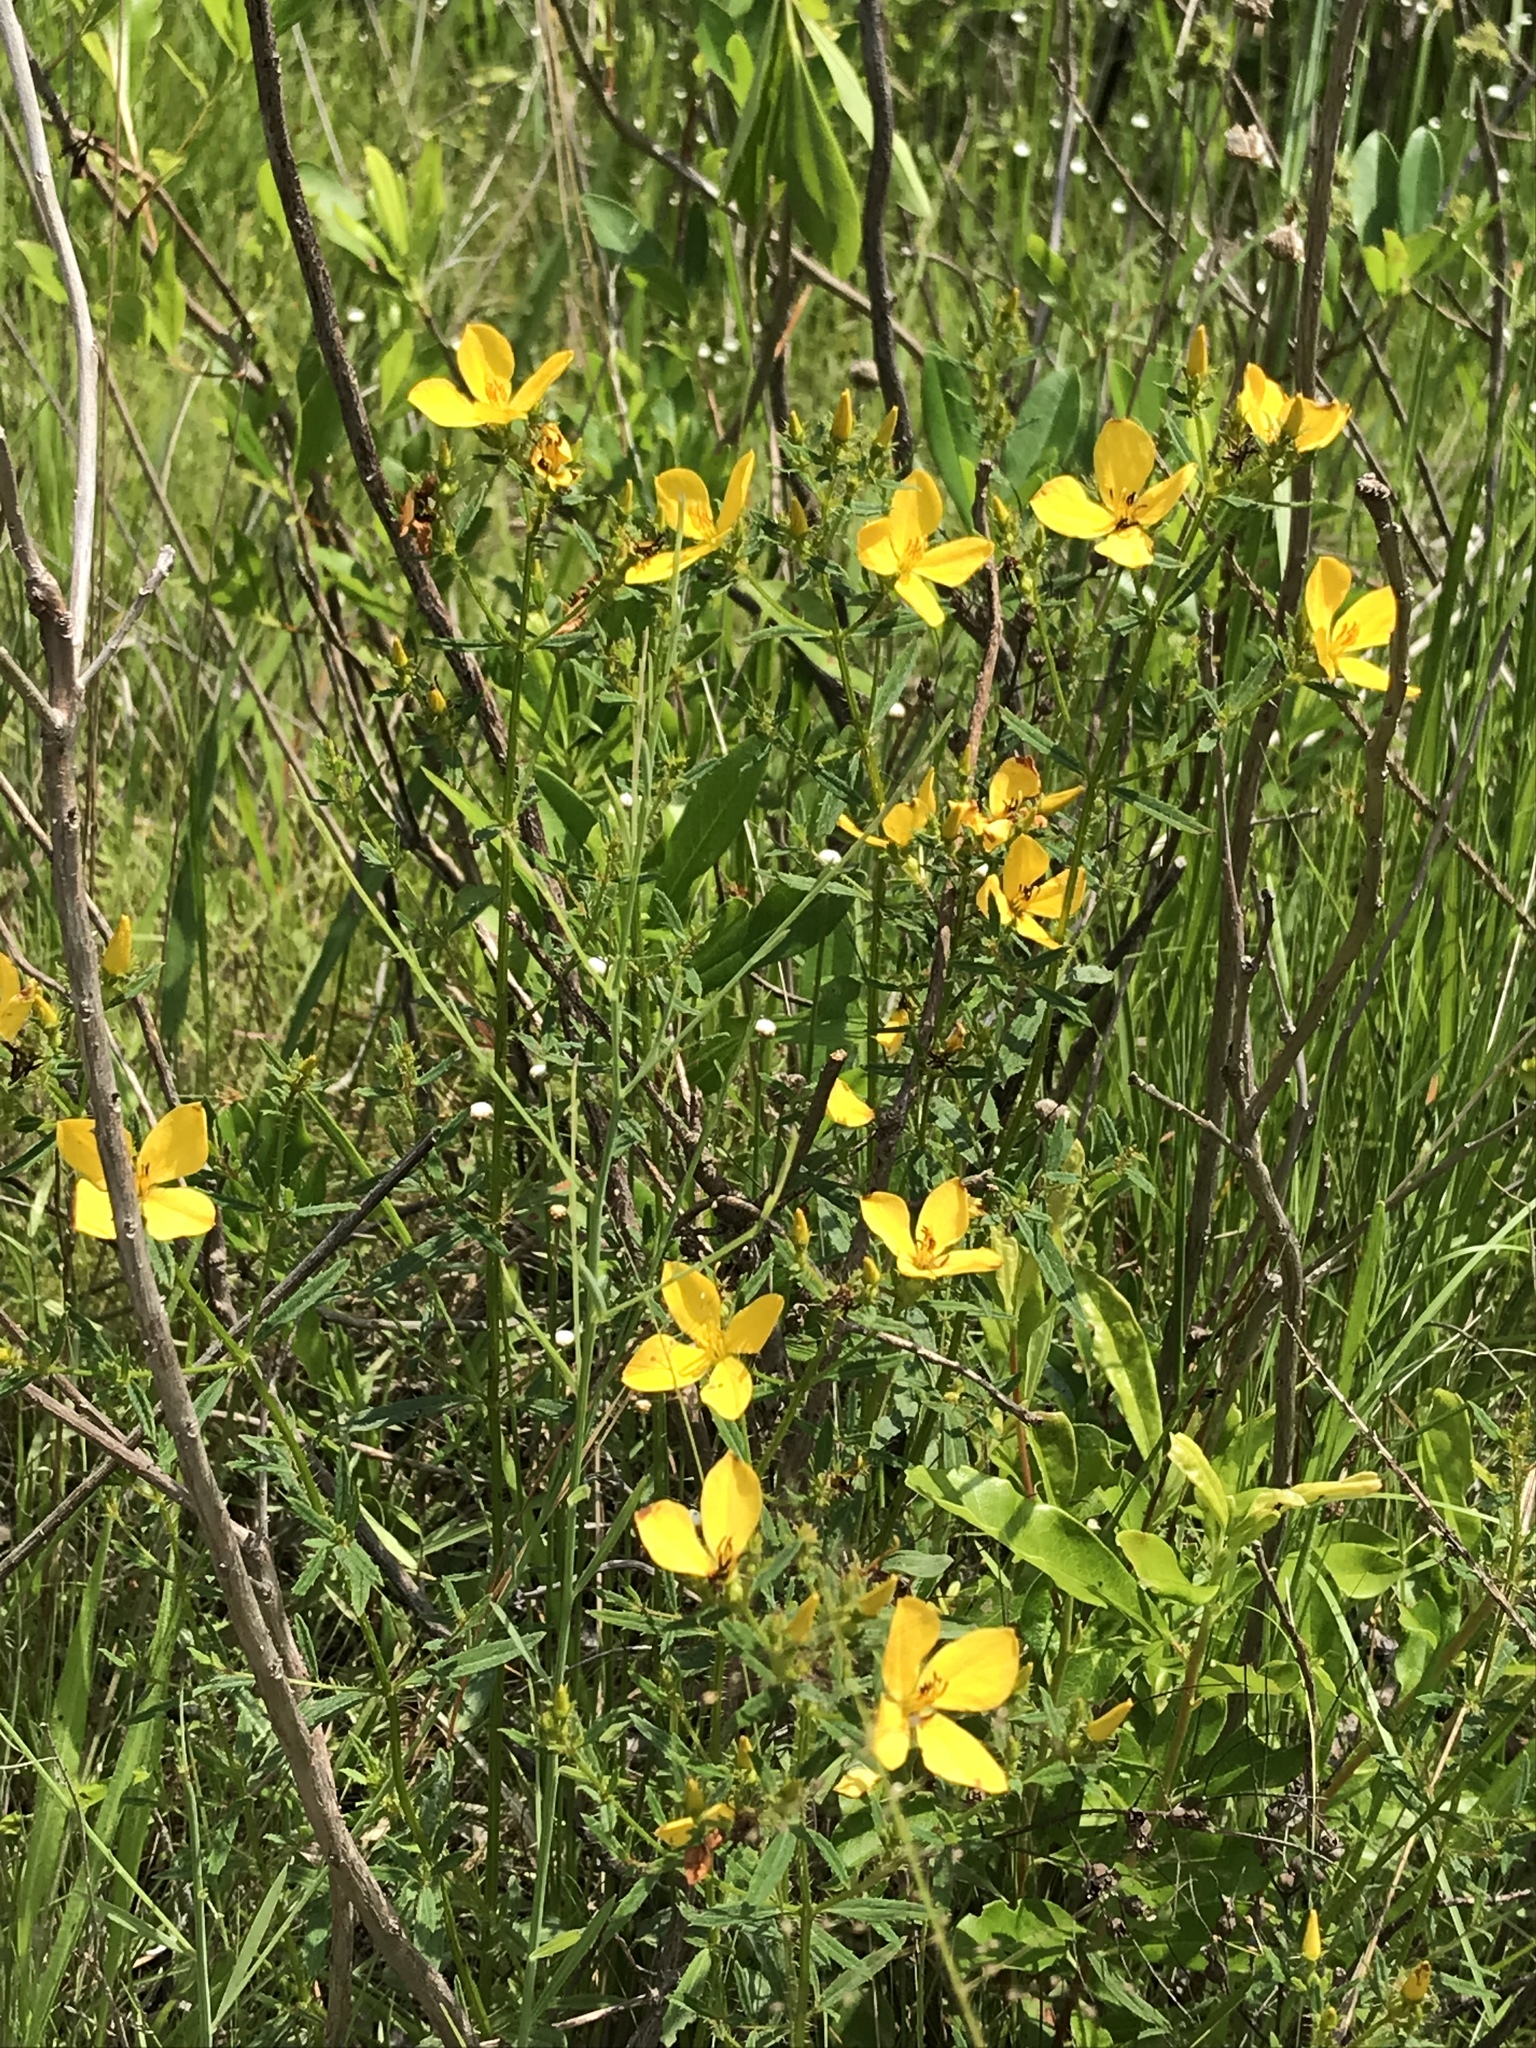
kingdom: Plantae
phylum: Tracheophyta
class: Magnoliopsida
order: Myrtales
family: Melastomataceae
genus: Rhexia
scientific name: Rhexia lutea
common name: Golden meadow-beauty
